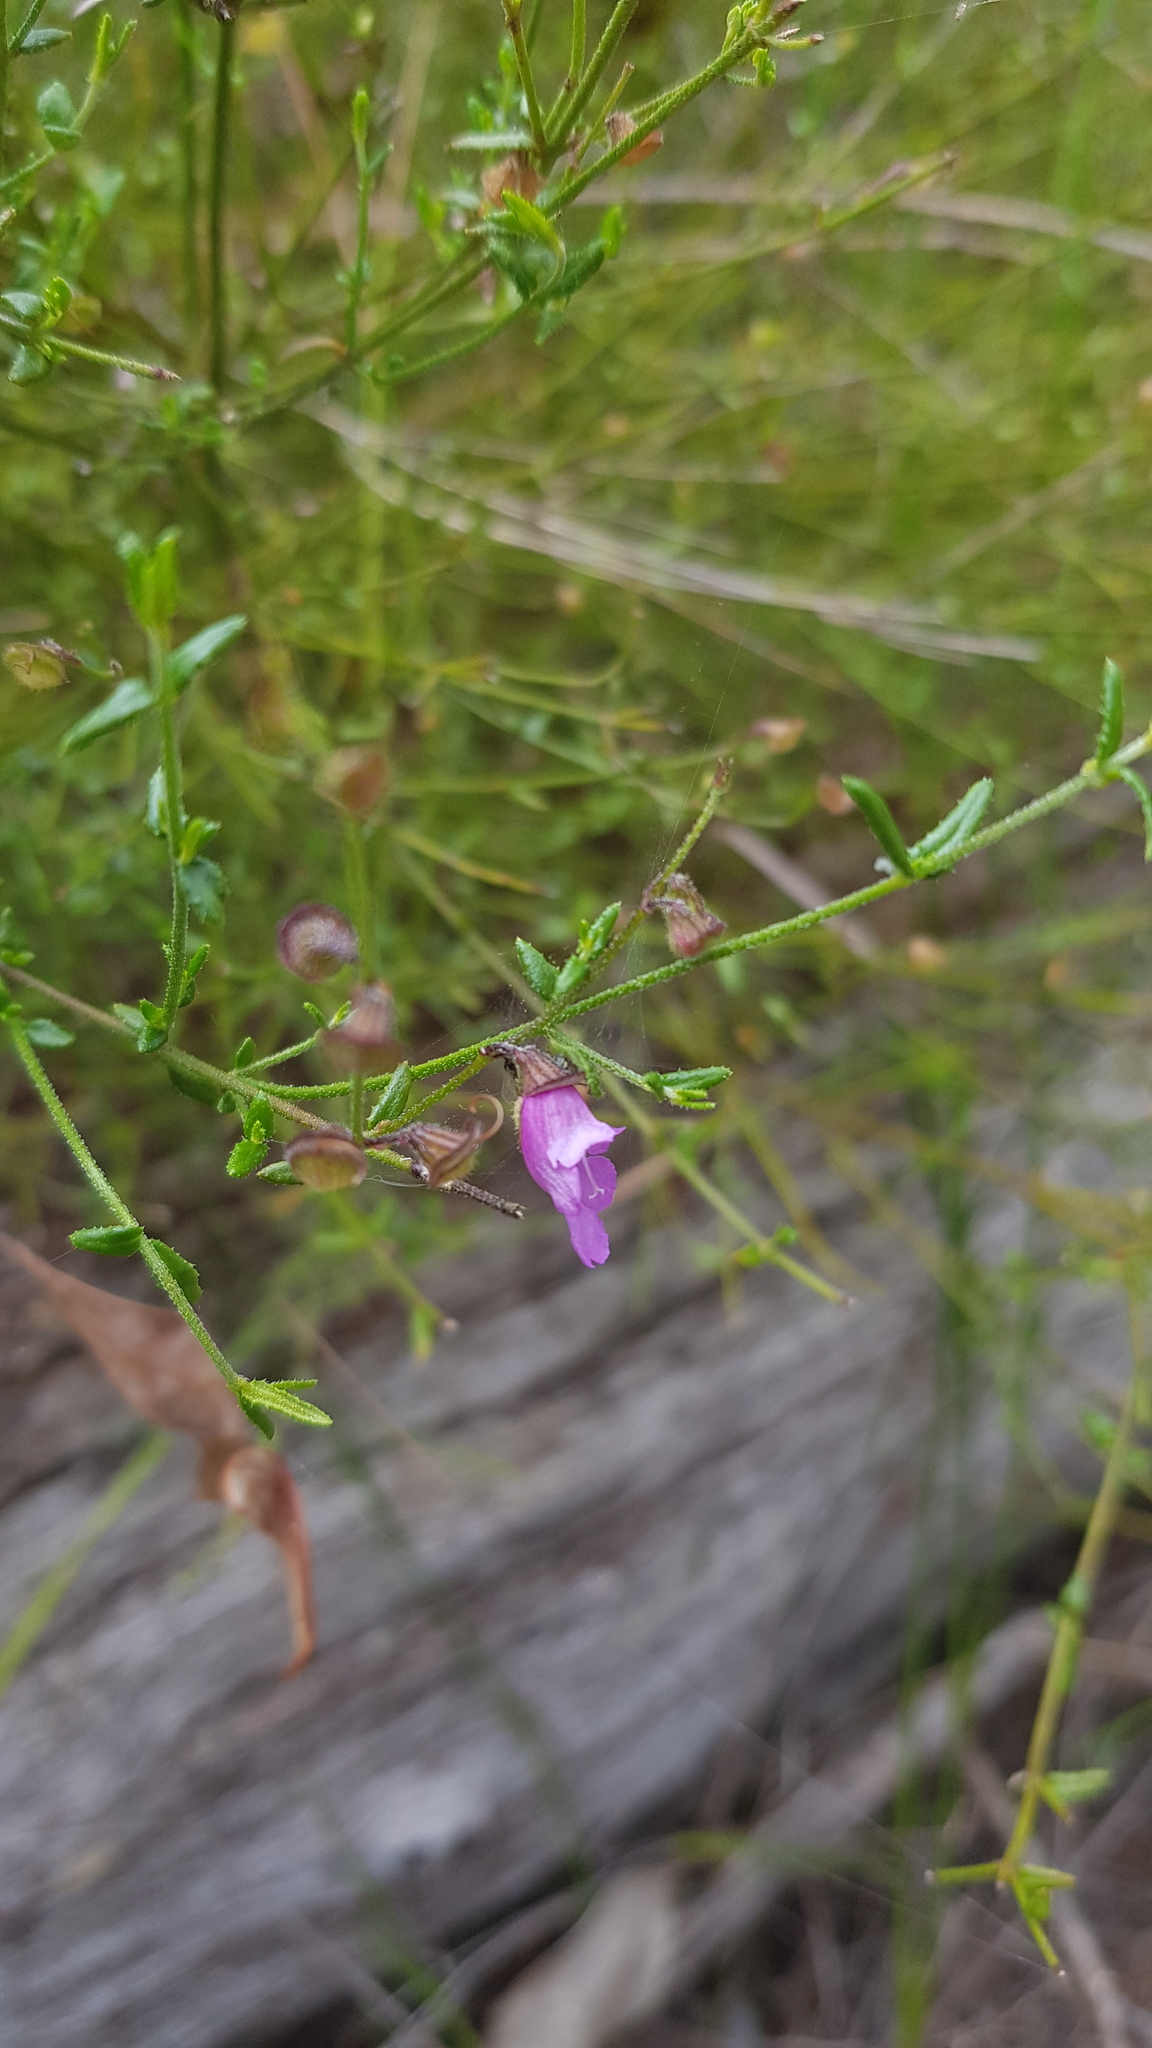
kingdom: Plantae
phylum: Tracheophyta
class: Magnoliopsida
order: Lamiales
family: Lamiaceae
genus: Prostanthera
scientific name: Prostanthera denticulata
